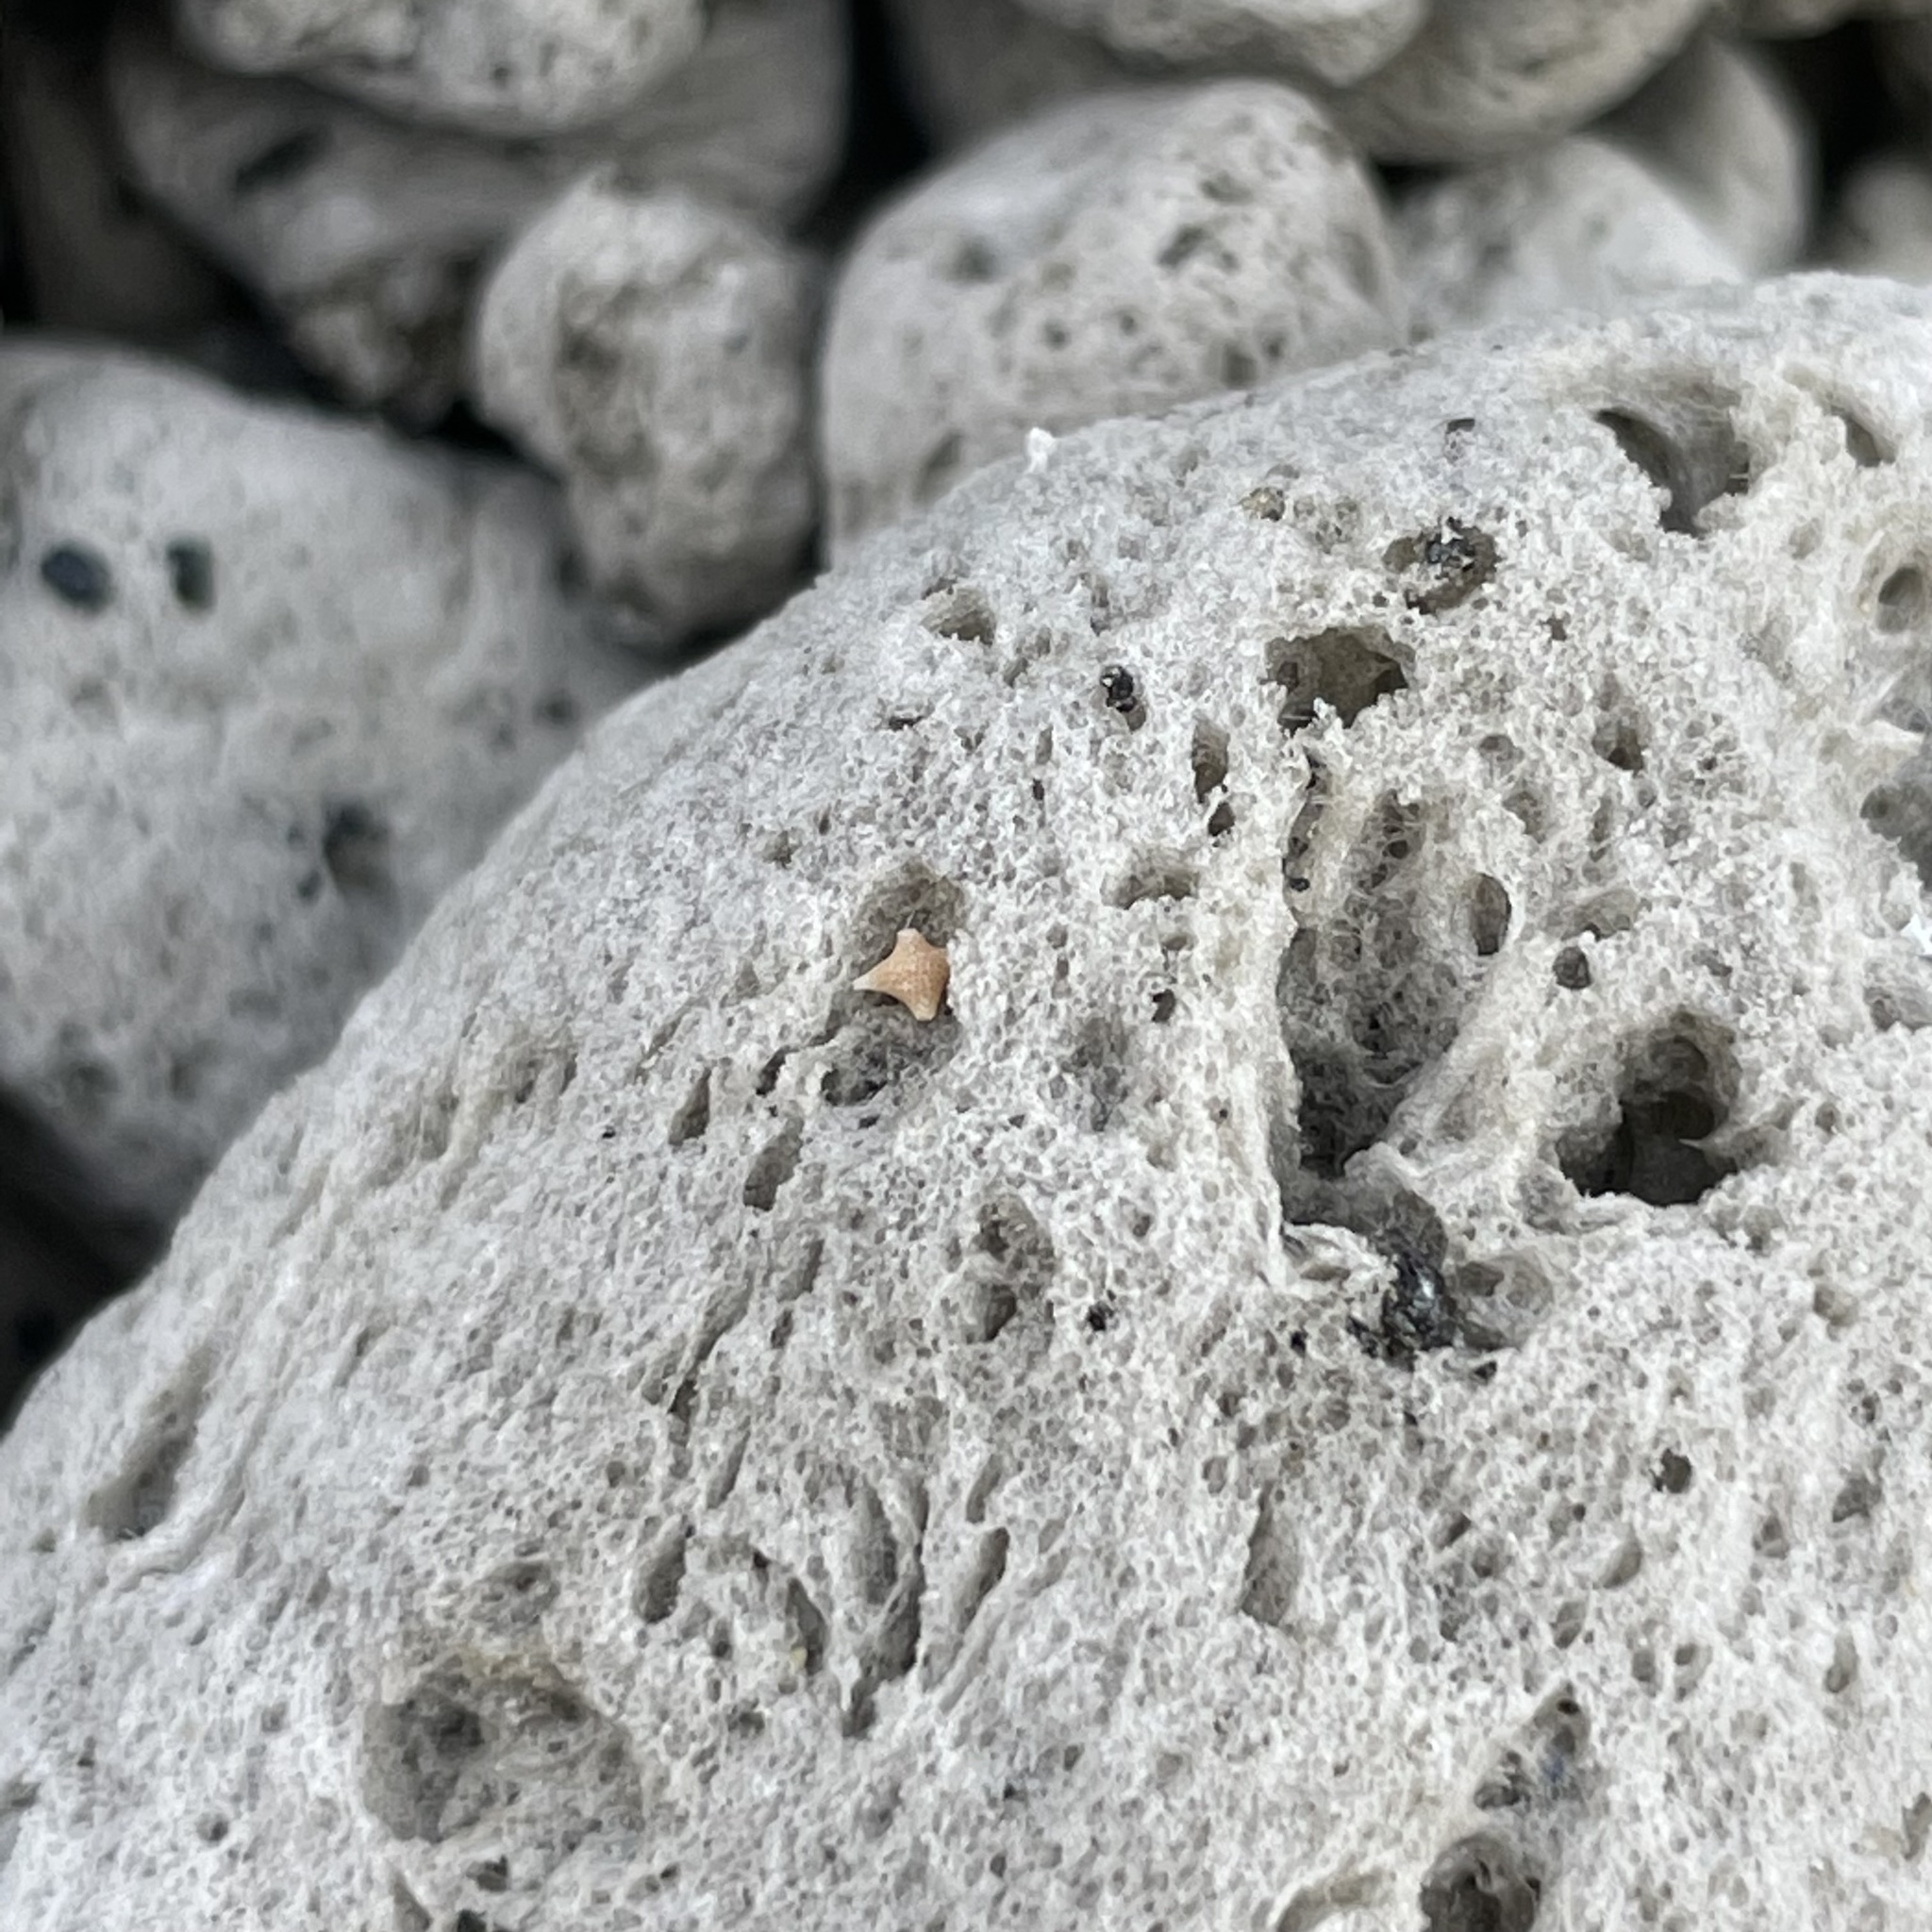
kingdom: Chromista
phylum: Foraminifera
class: Globothalamea
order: Rotaliida
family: Calcarinidae
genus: Baculogypsina
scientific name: Baculogypsina sphaerulata
